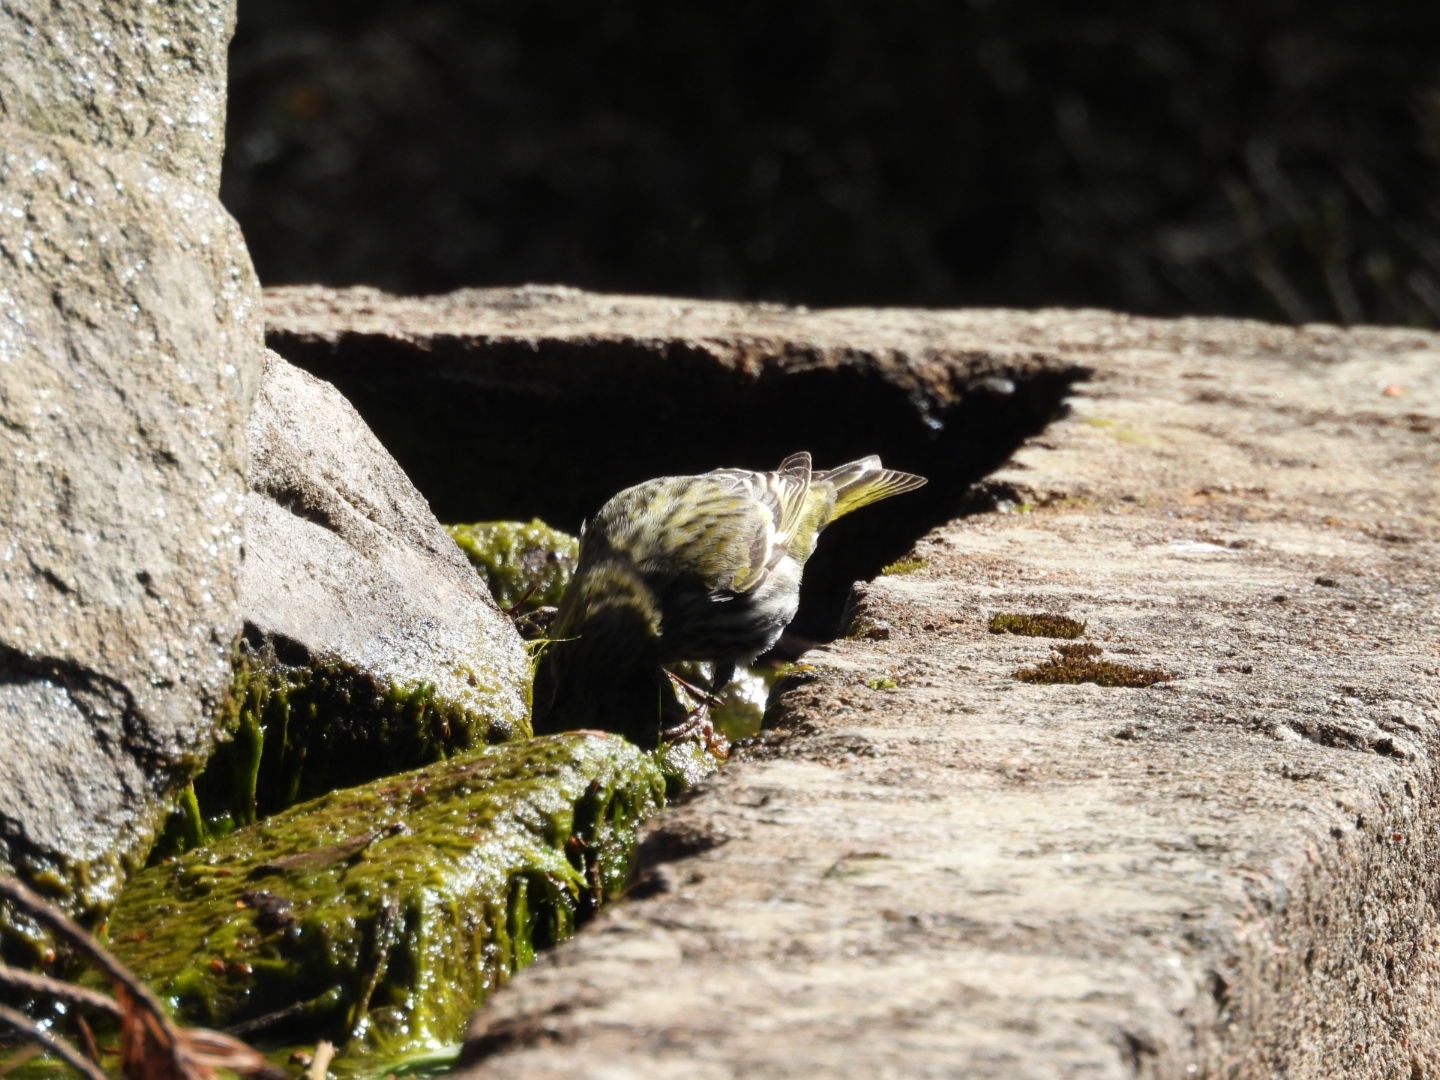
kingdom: Animalia
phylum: Chordata
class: Aves
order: Passeriformes
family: Fringillidae
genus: Spinus
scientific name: Spinus spinus
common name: Eurasian siskin
